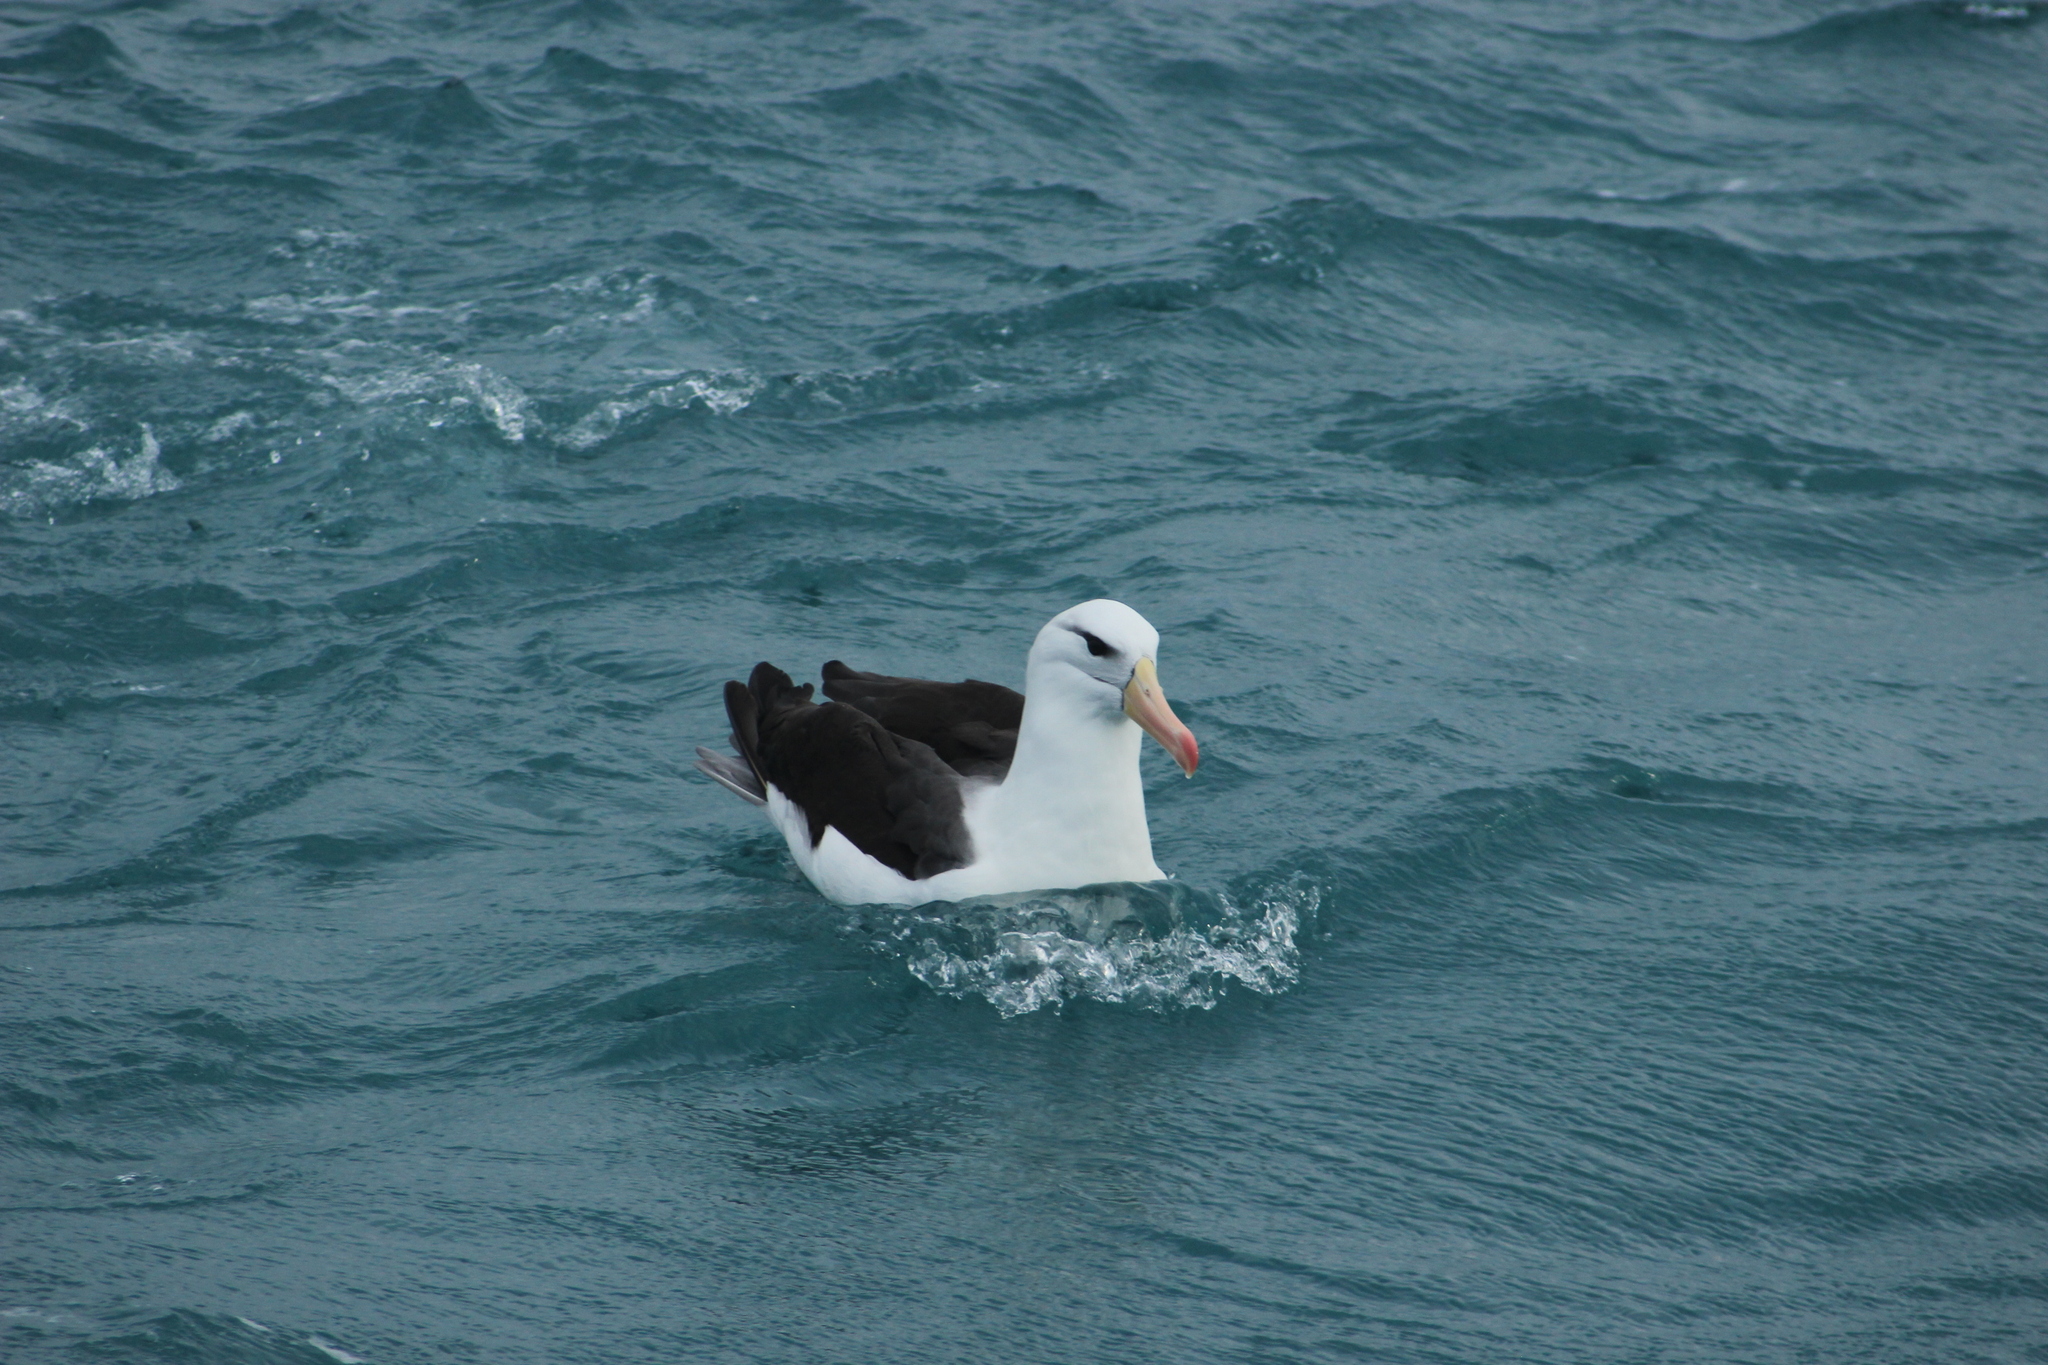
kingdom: Animalia
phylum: Chordata
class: Aves
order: Procellariiformes
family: Diomedeidae
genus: Thalassarche
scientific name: Thalassarche melanophris
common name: Black-browed albatross
